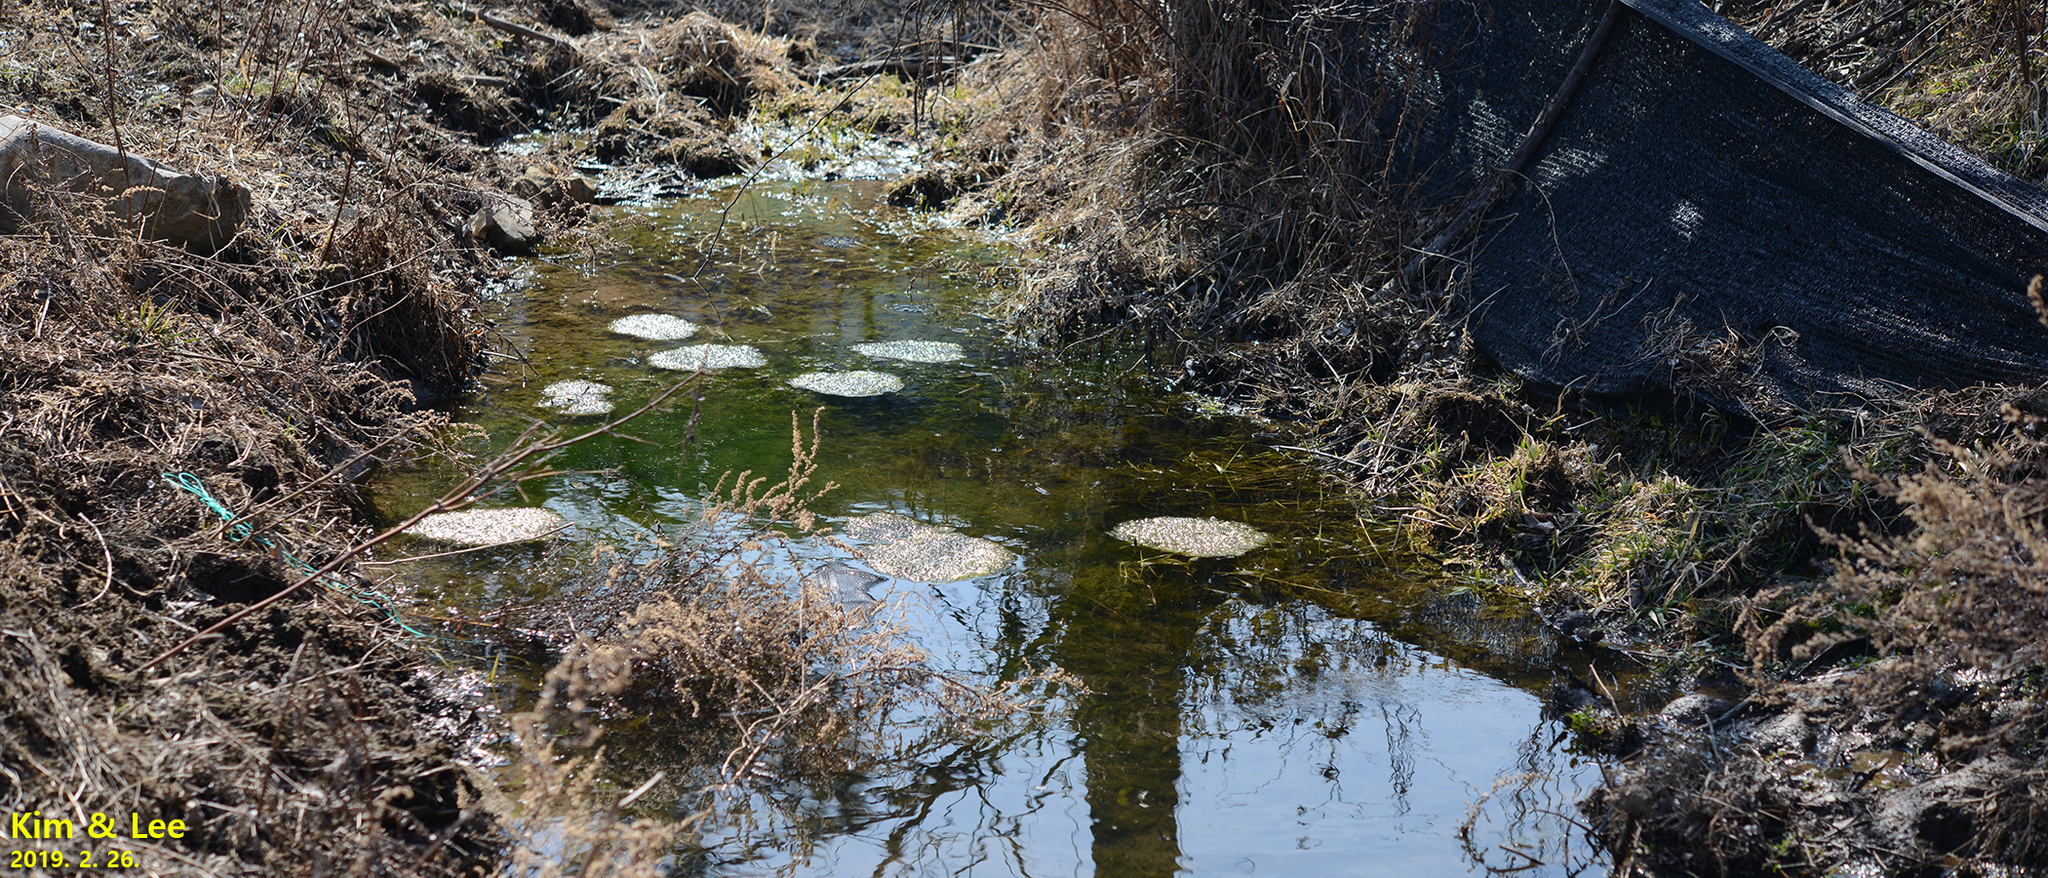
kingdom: Animalia
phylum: Chordata
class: Amphibia
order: Anura
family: Ranidae
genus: Rana
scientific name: Rana uenoi
